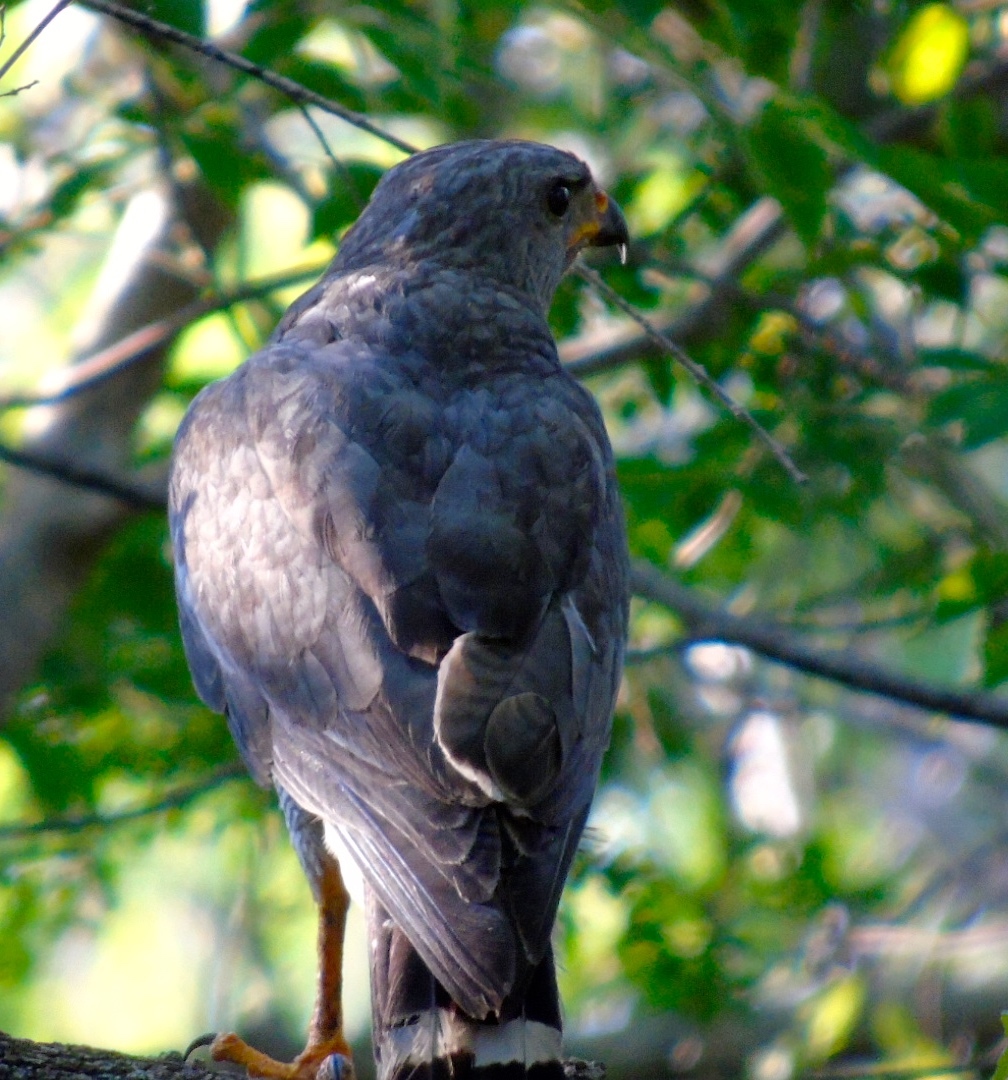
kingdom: Animalia
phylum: Chordata
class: Aves
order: Accipitriformes
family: Accipitridae
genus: Buteo
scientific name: Buteo nitidus
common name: Grey-lined hawk
